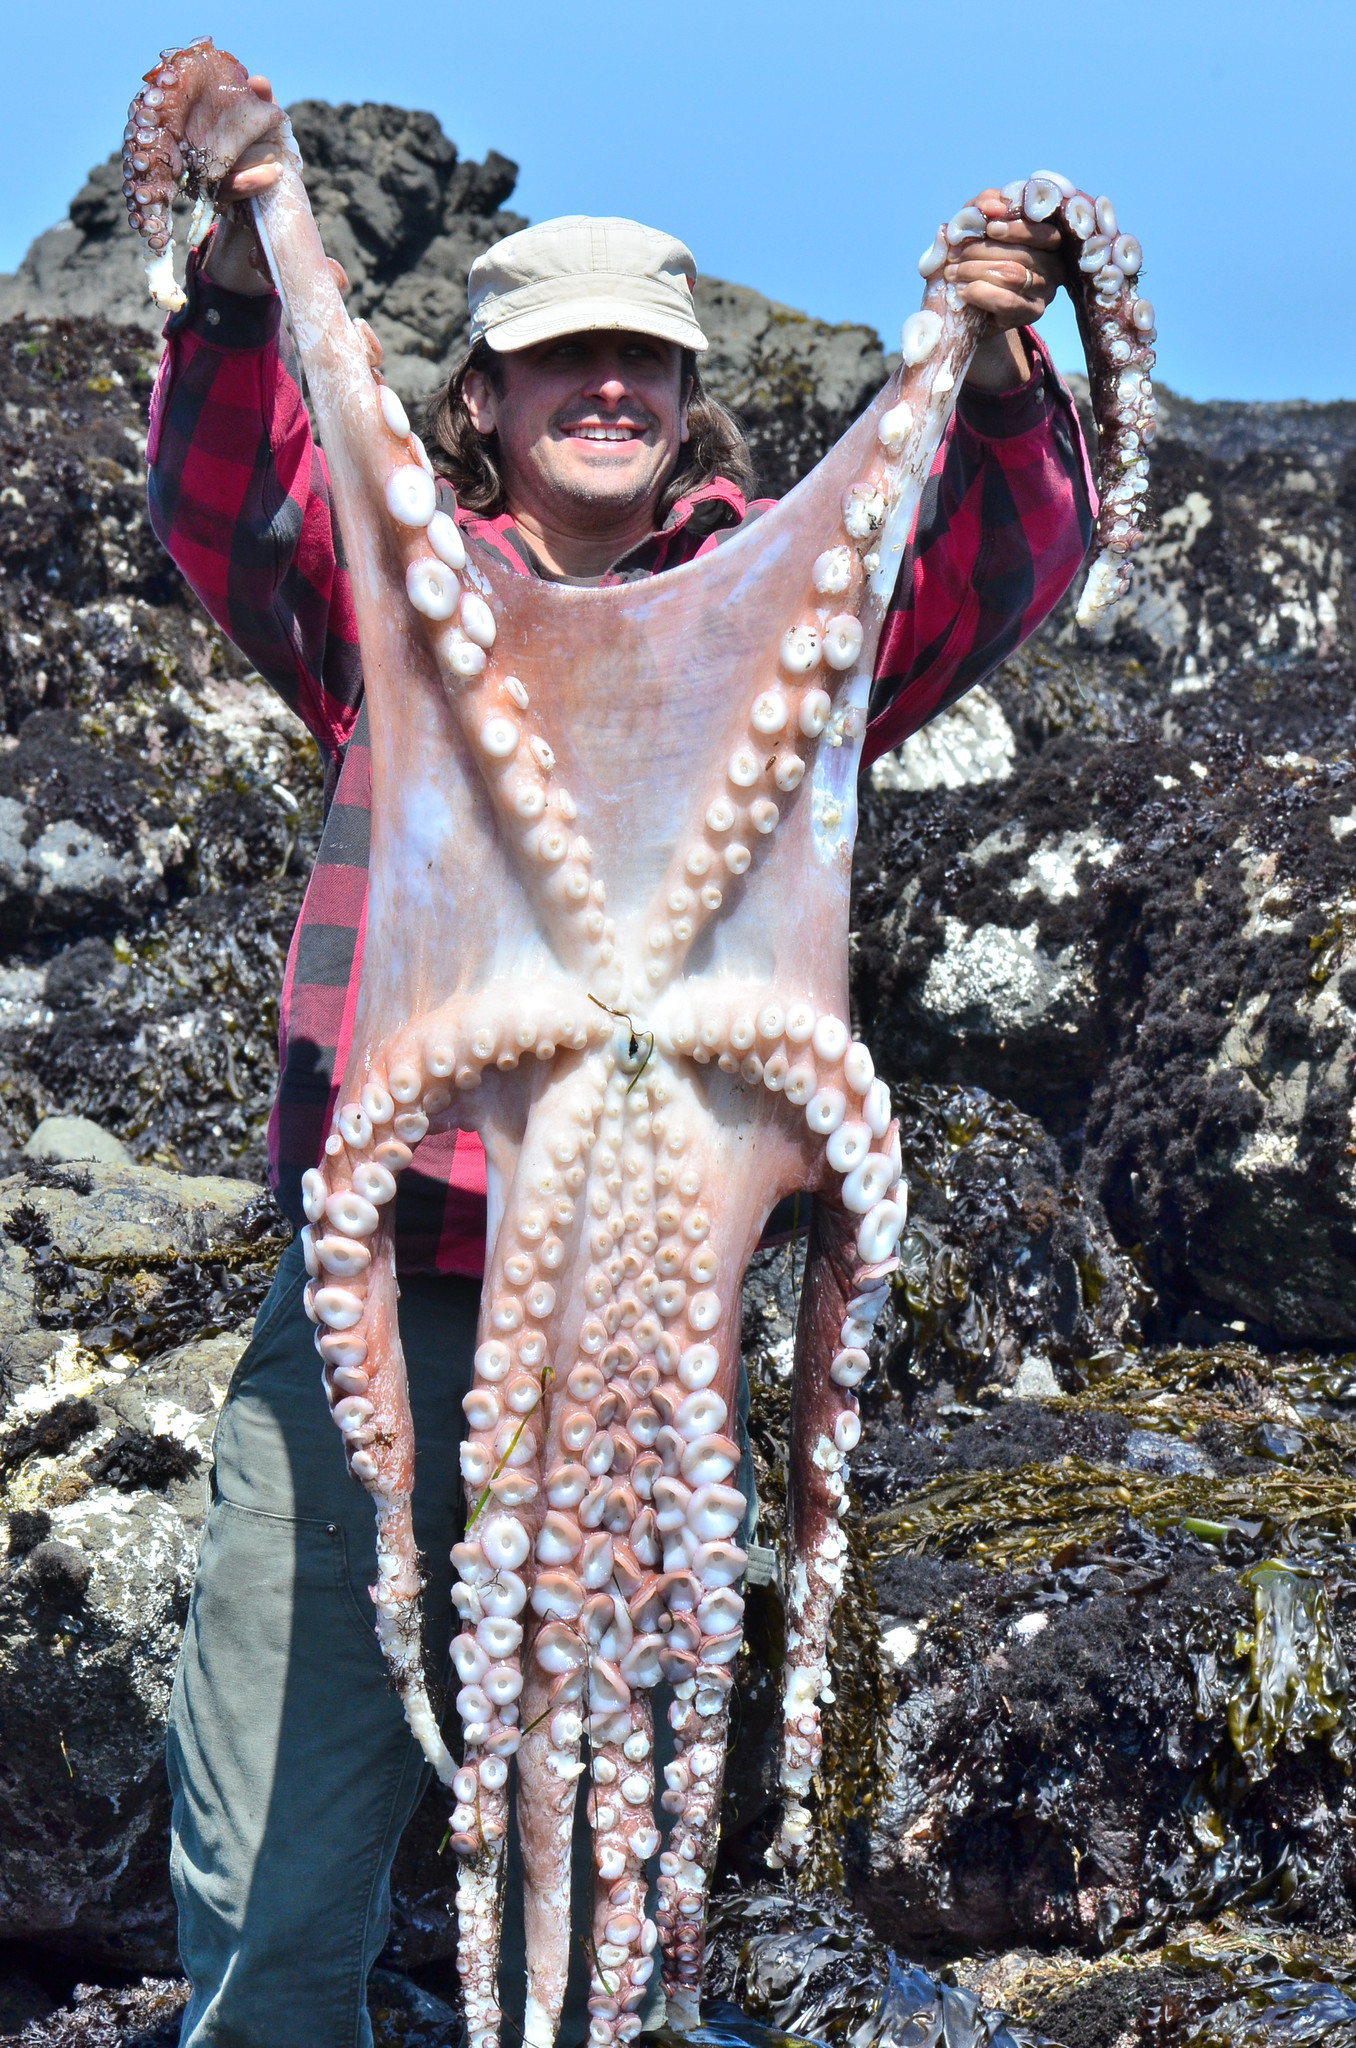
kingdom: Animalia
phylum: Mollusca
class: Cephalopoda
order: Octopoda
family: Enteroctopodidae
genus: Enteroctopus
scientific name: Enteroctopus dofleini
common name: Giant north pacific octopus
